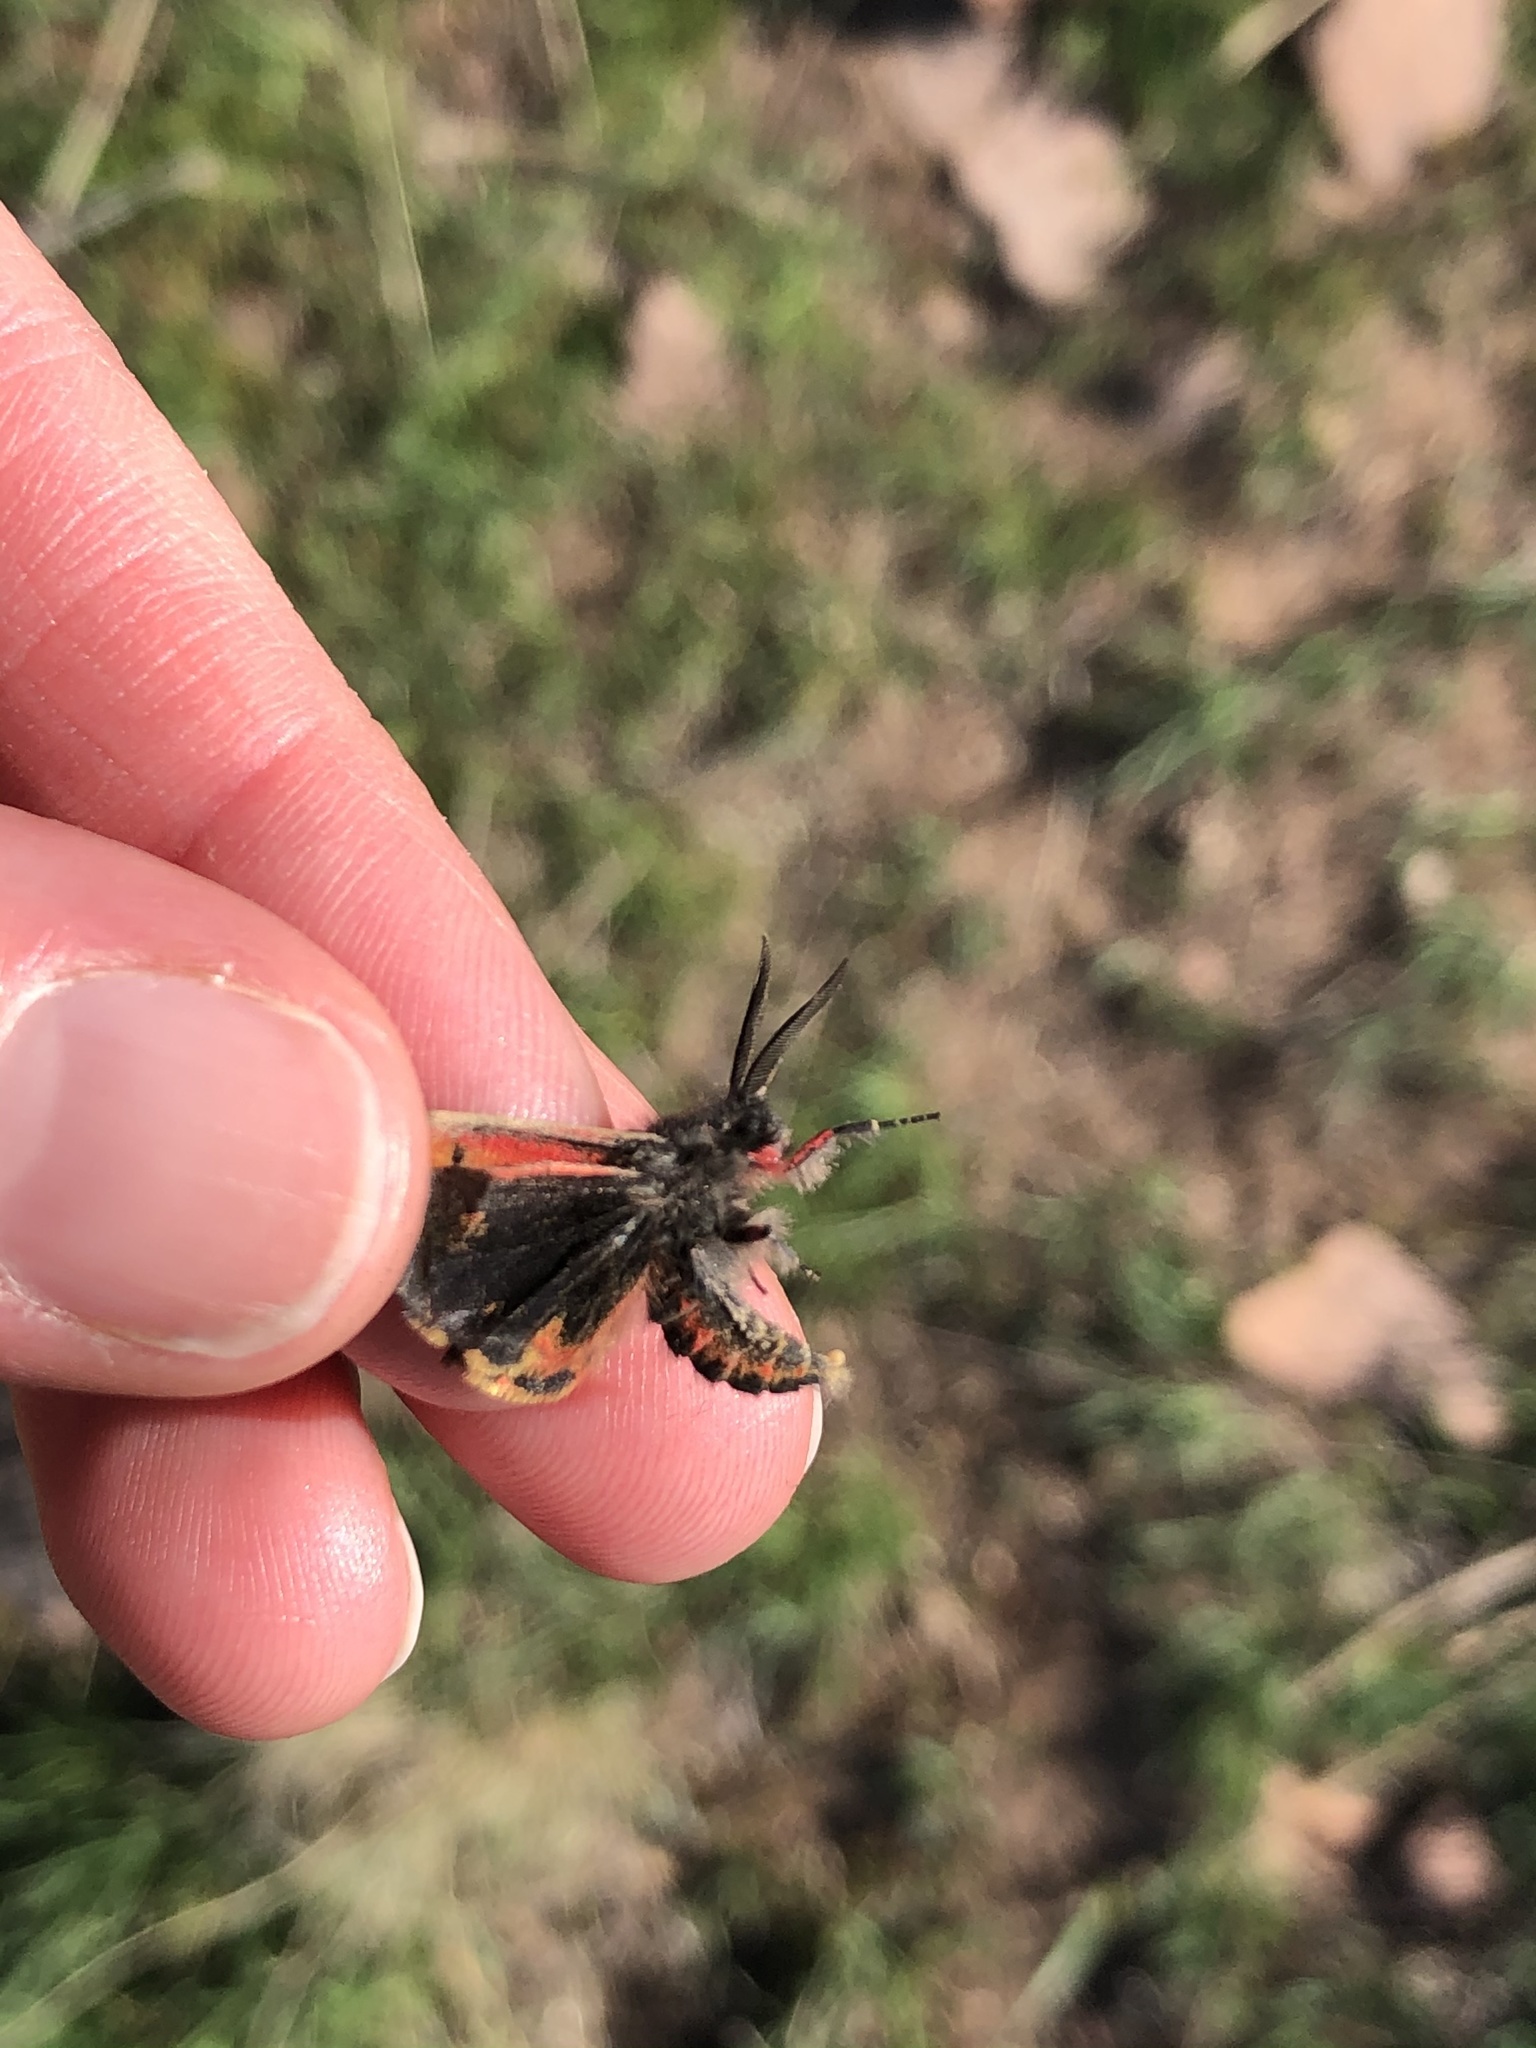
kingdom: Animalia
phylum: Arthropoda
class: Insecta
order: Lepidoptera
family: Erebidae
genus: Leptarctia
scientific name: Leptarctia californiae
